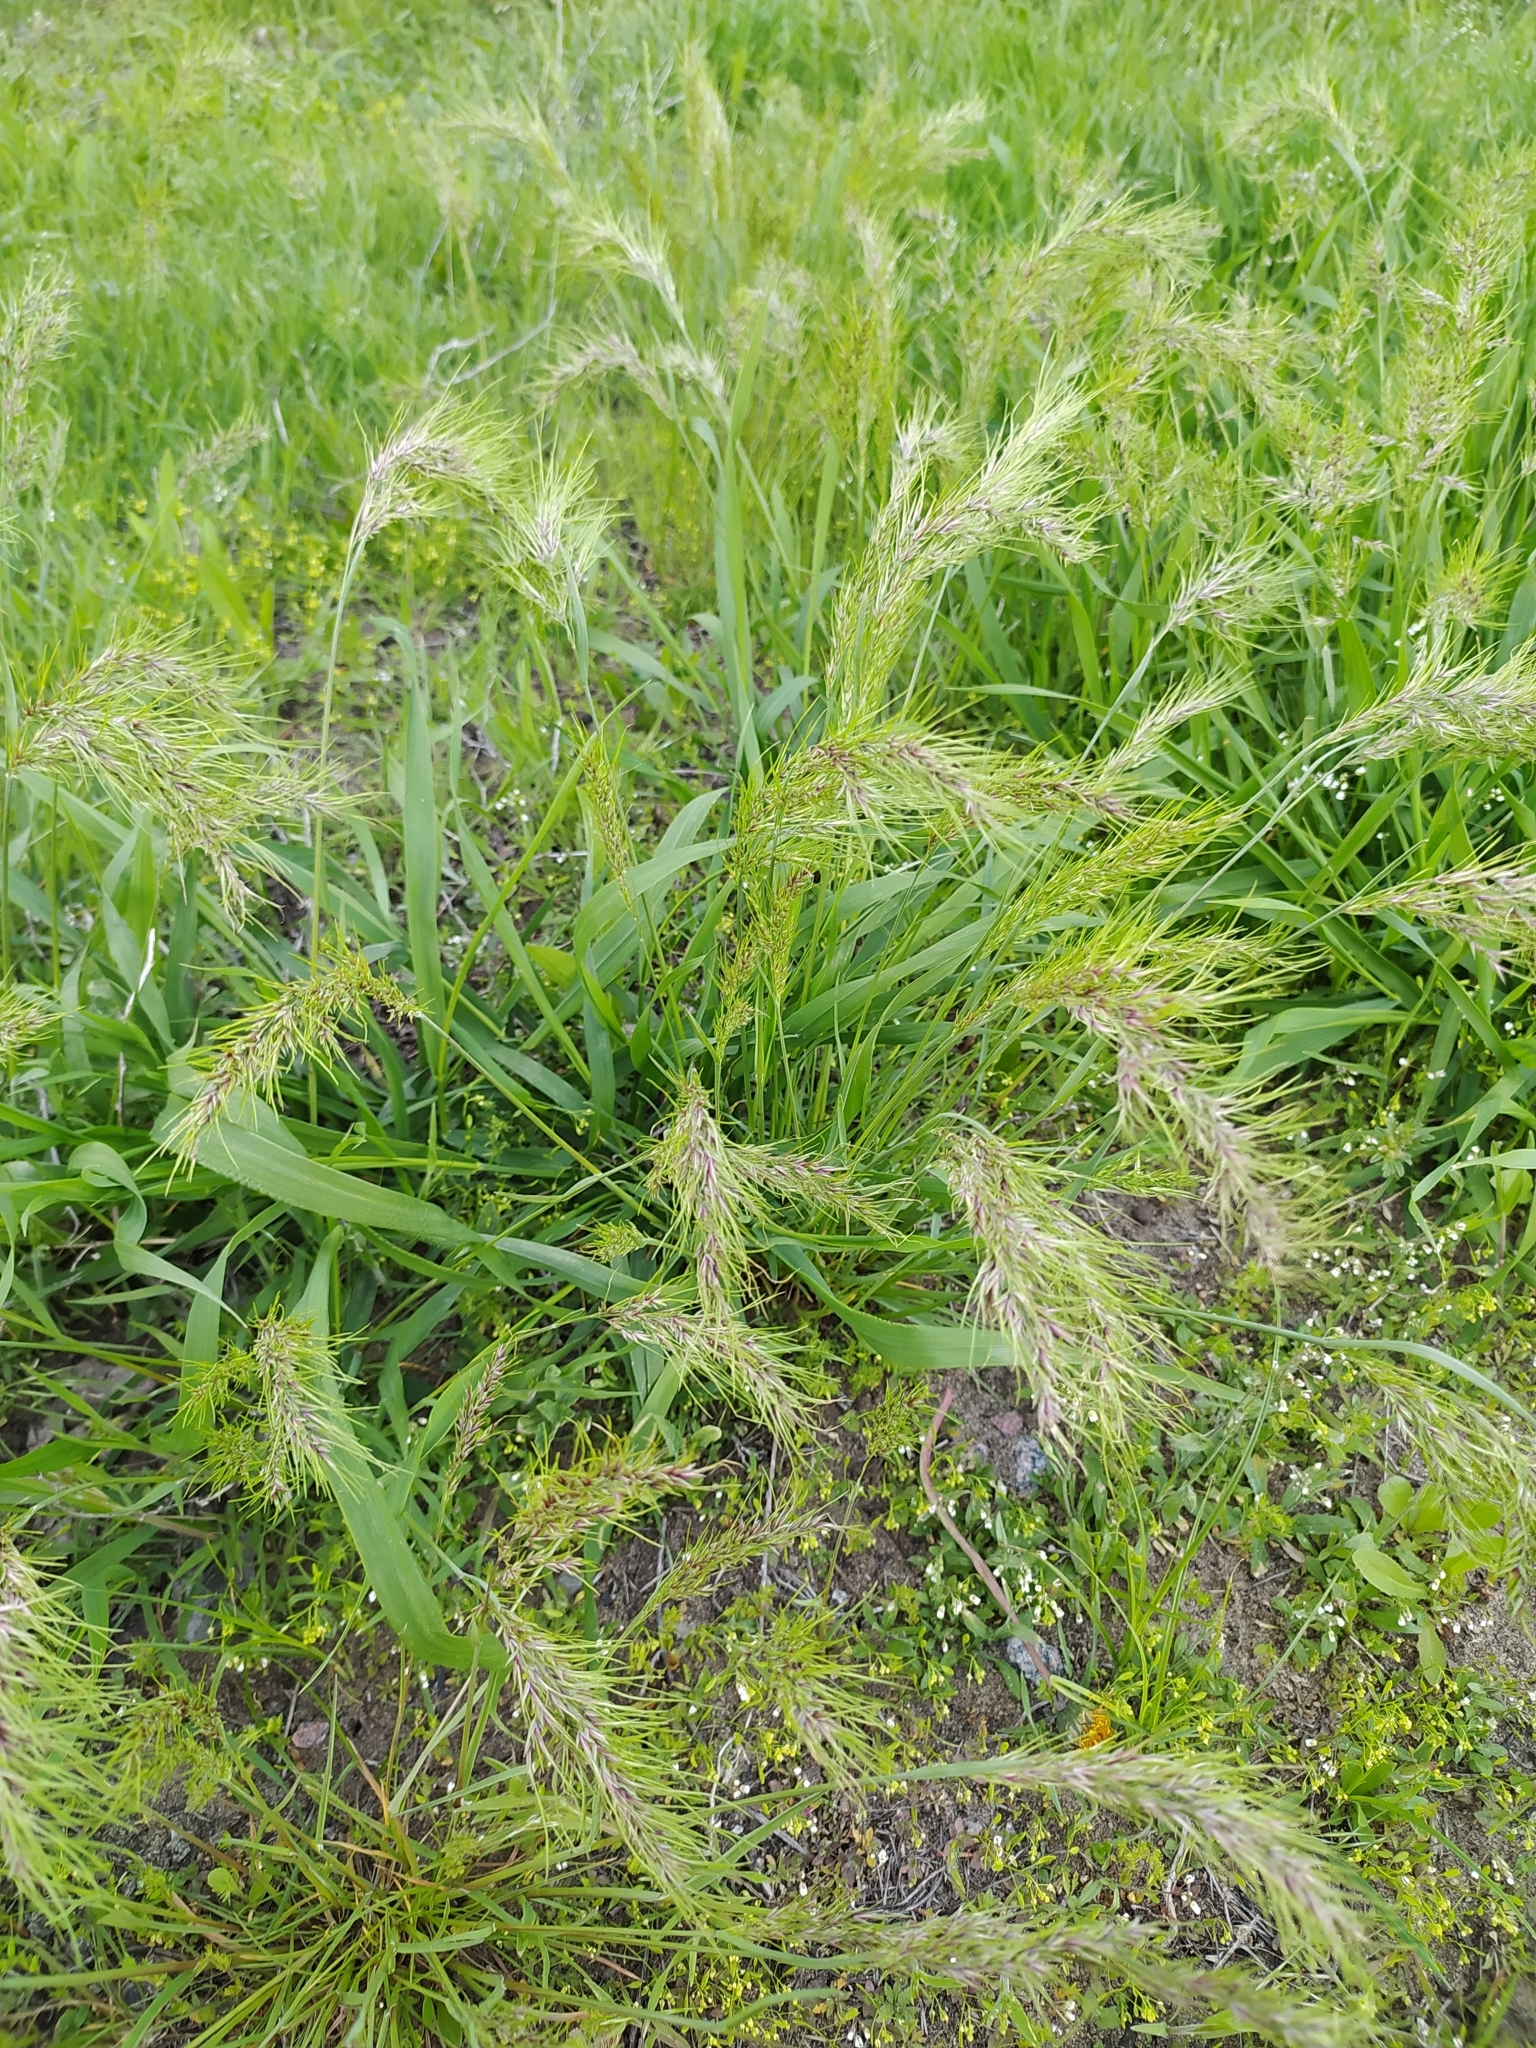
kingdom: Plantae
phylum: Tracheophyta
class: Liliopsida
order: Poales
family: Poaceae
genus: Poa
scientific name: Poa bulbosa
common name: Bulbous bluegrass
